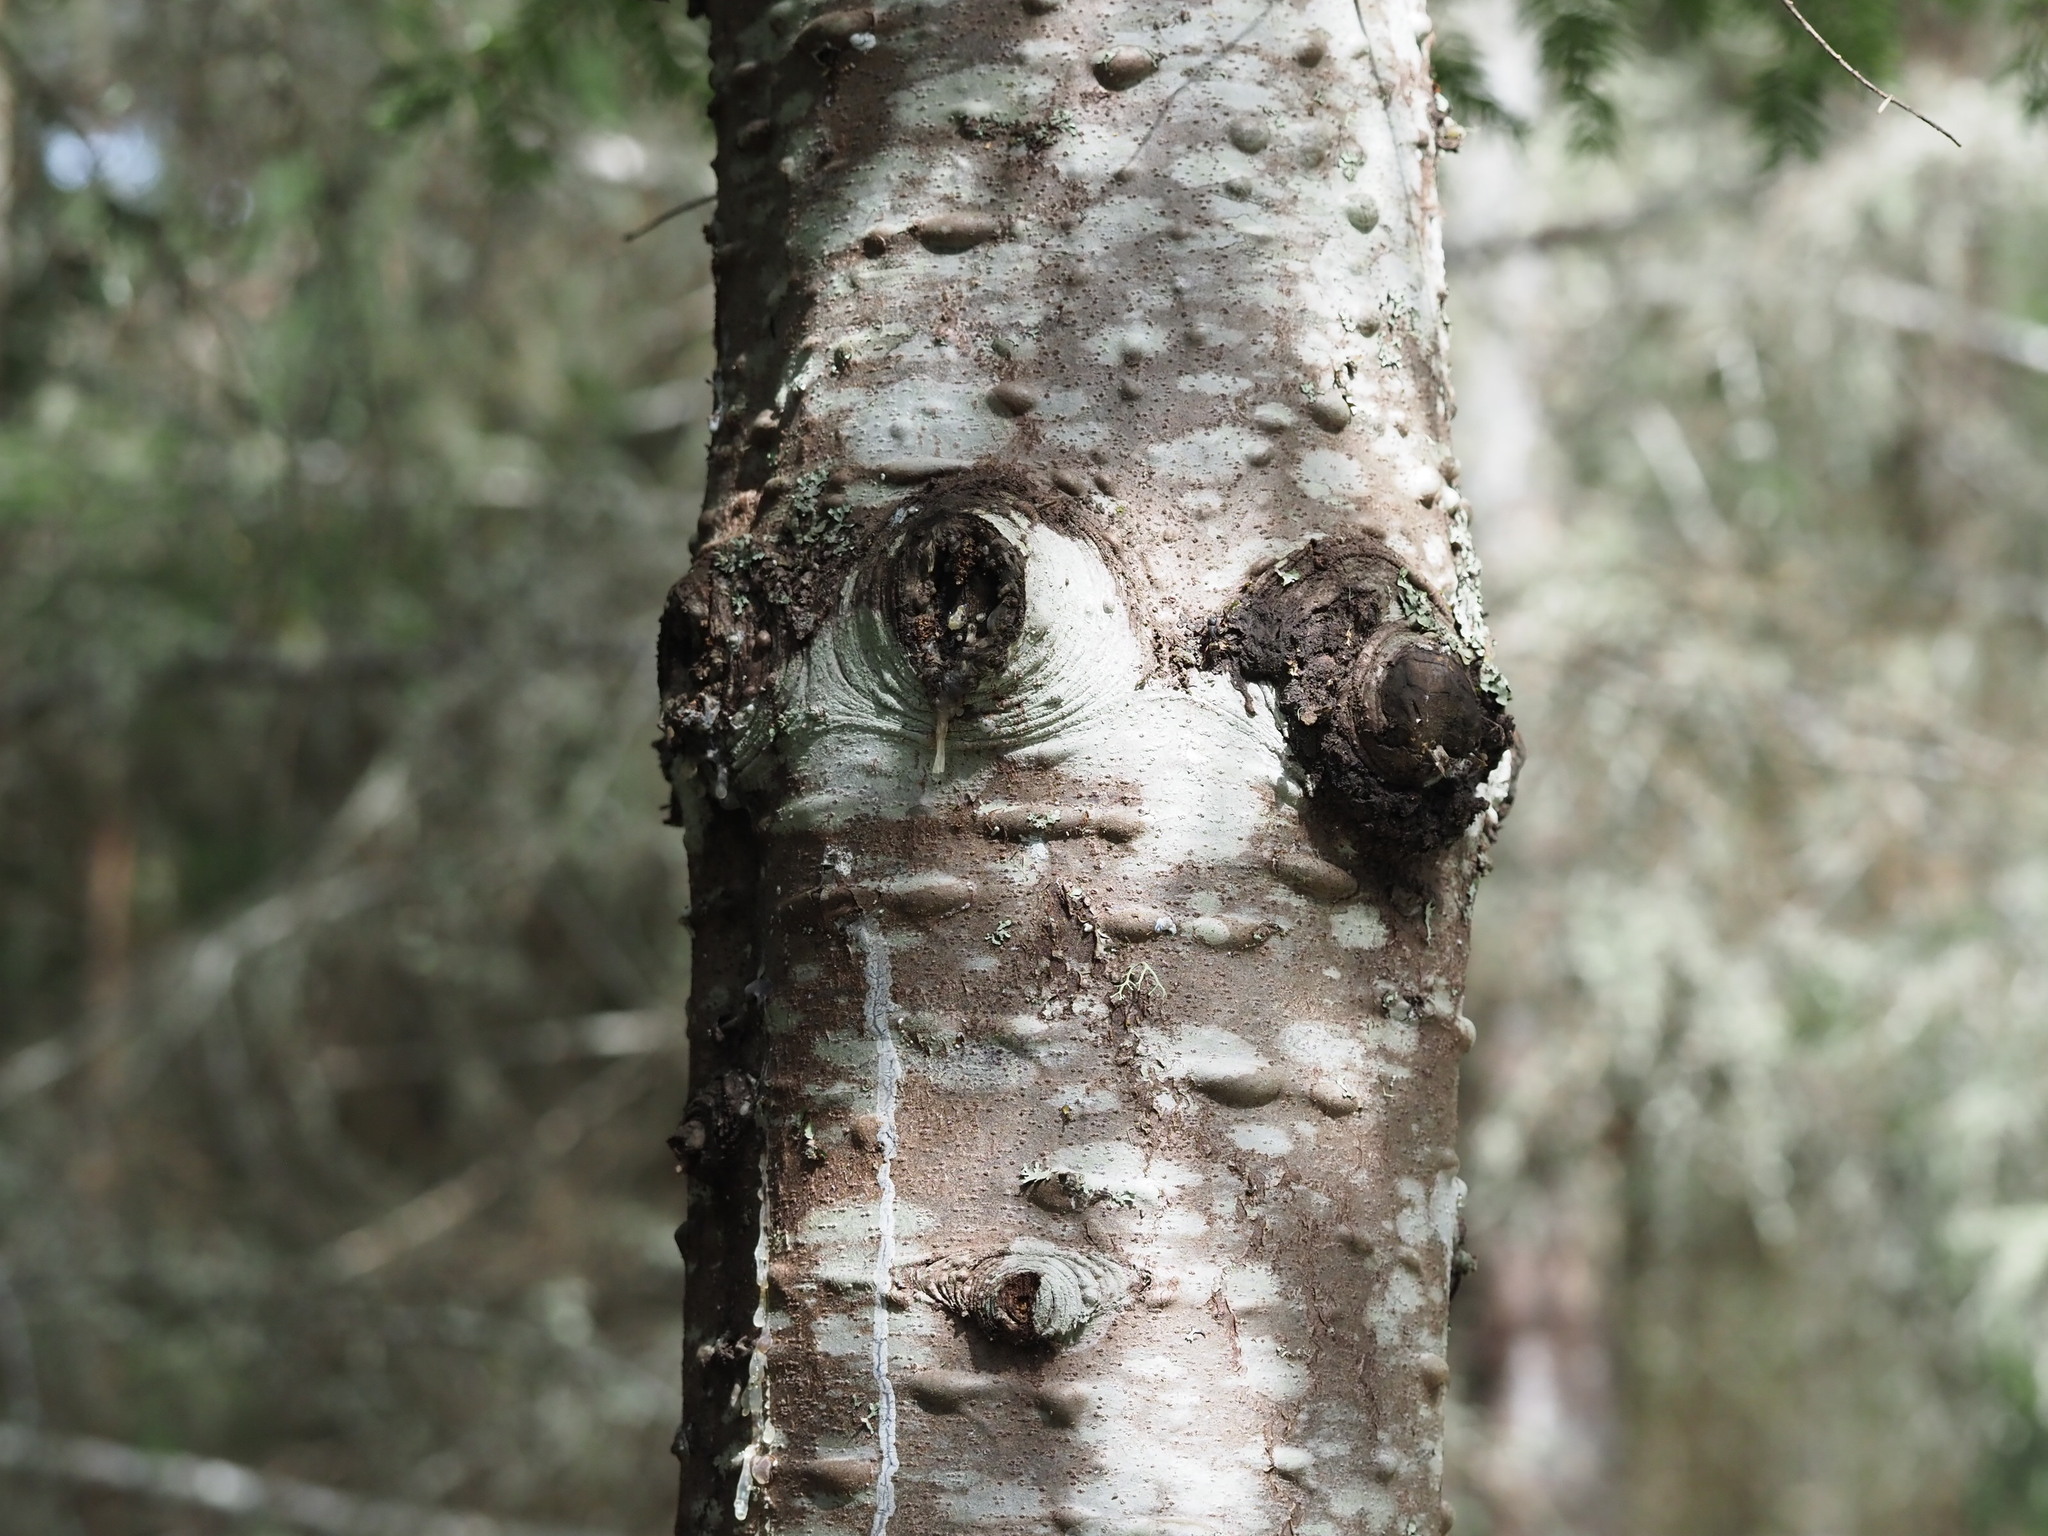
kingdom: Plantae
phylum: Tracheophyta
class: Pinopsida
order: Pinales
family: Pinaceae
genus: Abies
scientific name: Abies grandis
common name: Giant fir
